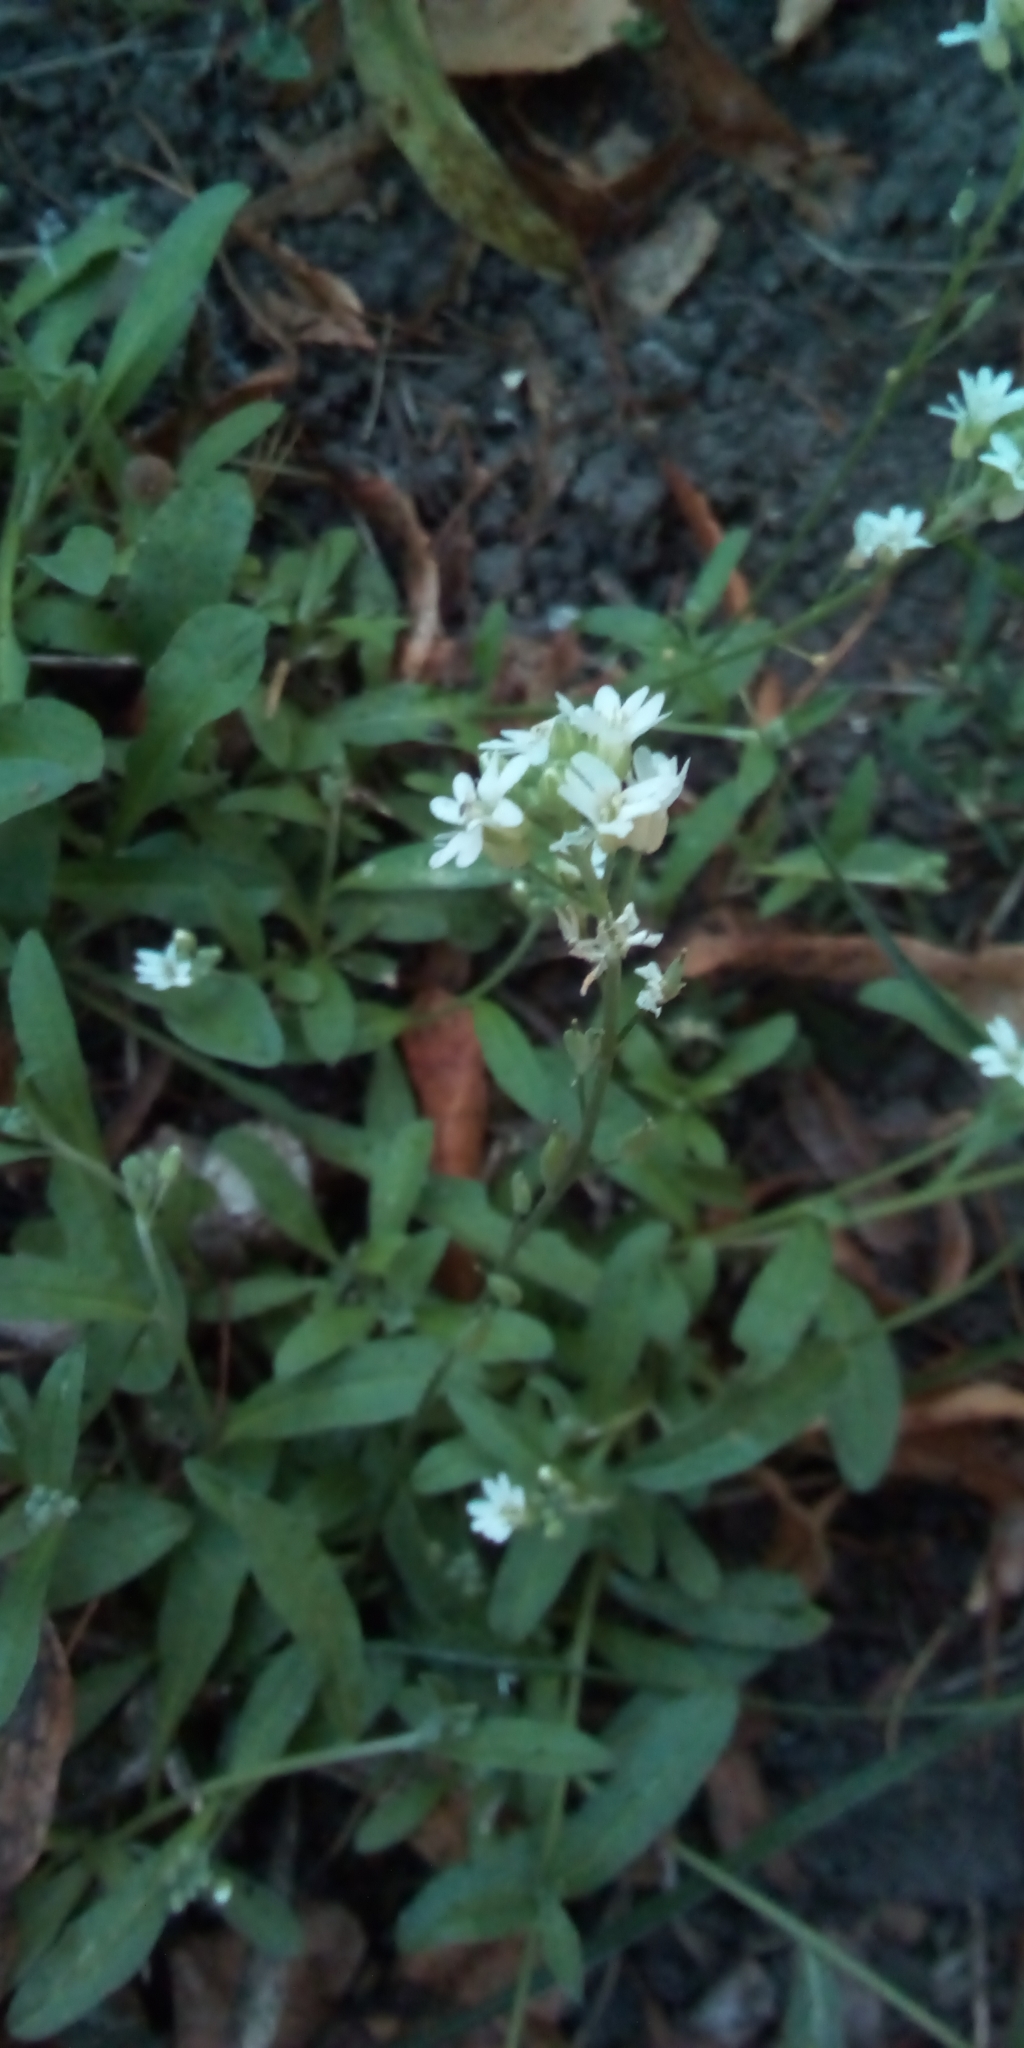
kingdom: Plantae
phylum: Tracheophyta
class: Magnoliopsida
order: Brassicales
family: Brassicaceae
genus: Berteroa
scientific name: Berteroa incana
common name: Hoary alison
